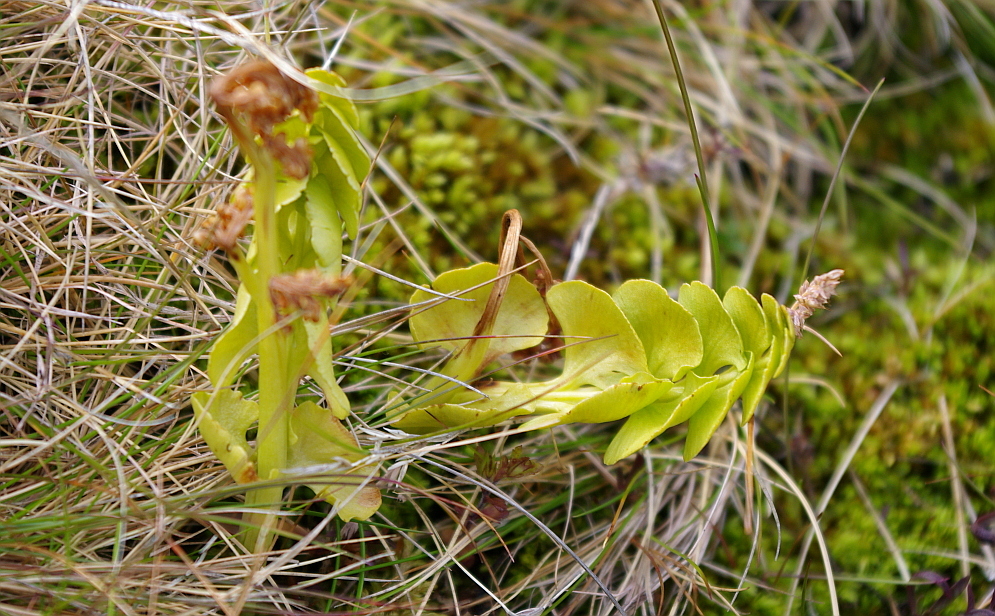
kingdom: Plantae
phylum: Tracheophyta
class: Polypodiopsida
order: Ophioglossales
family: Ophioglossaceae
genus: Botrychium
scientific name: Botrychium lunaria
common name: Moonwort
